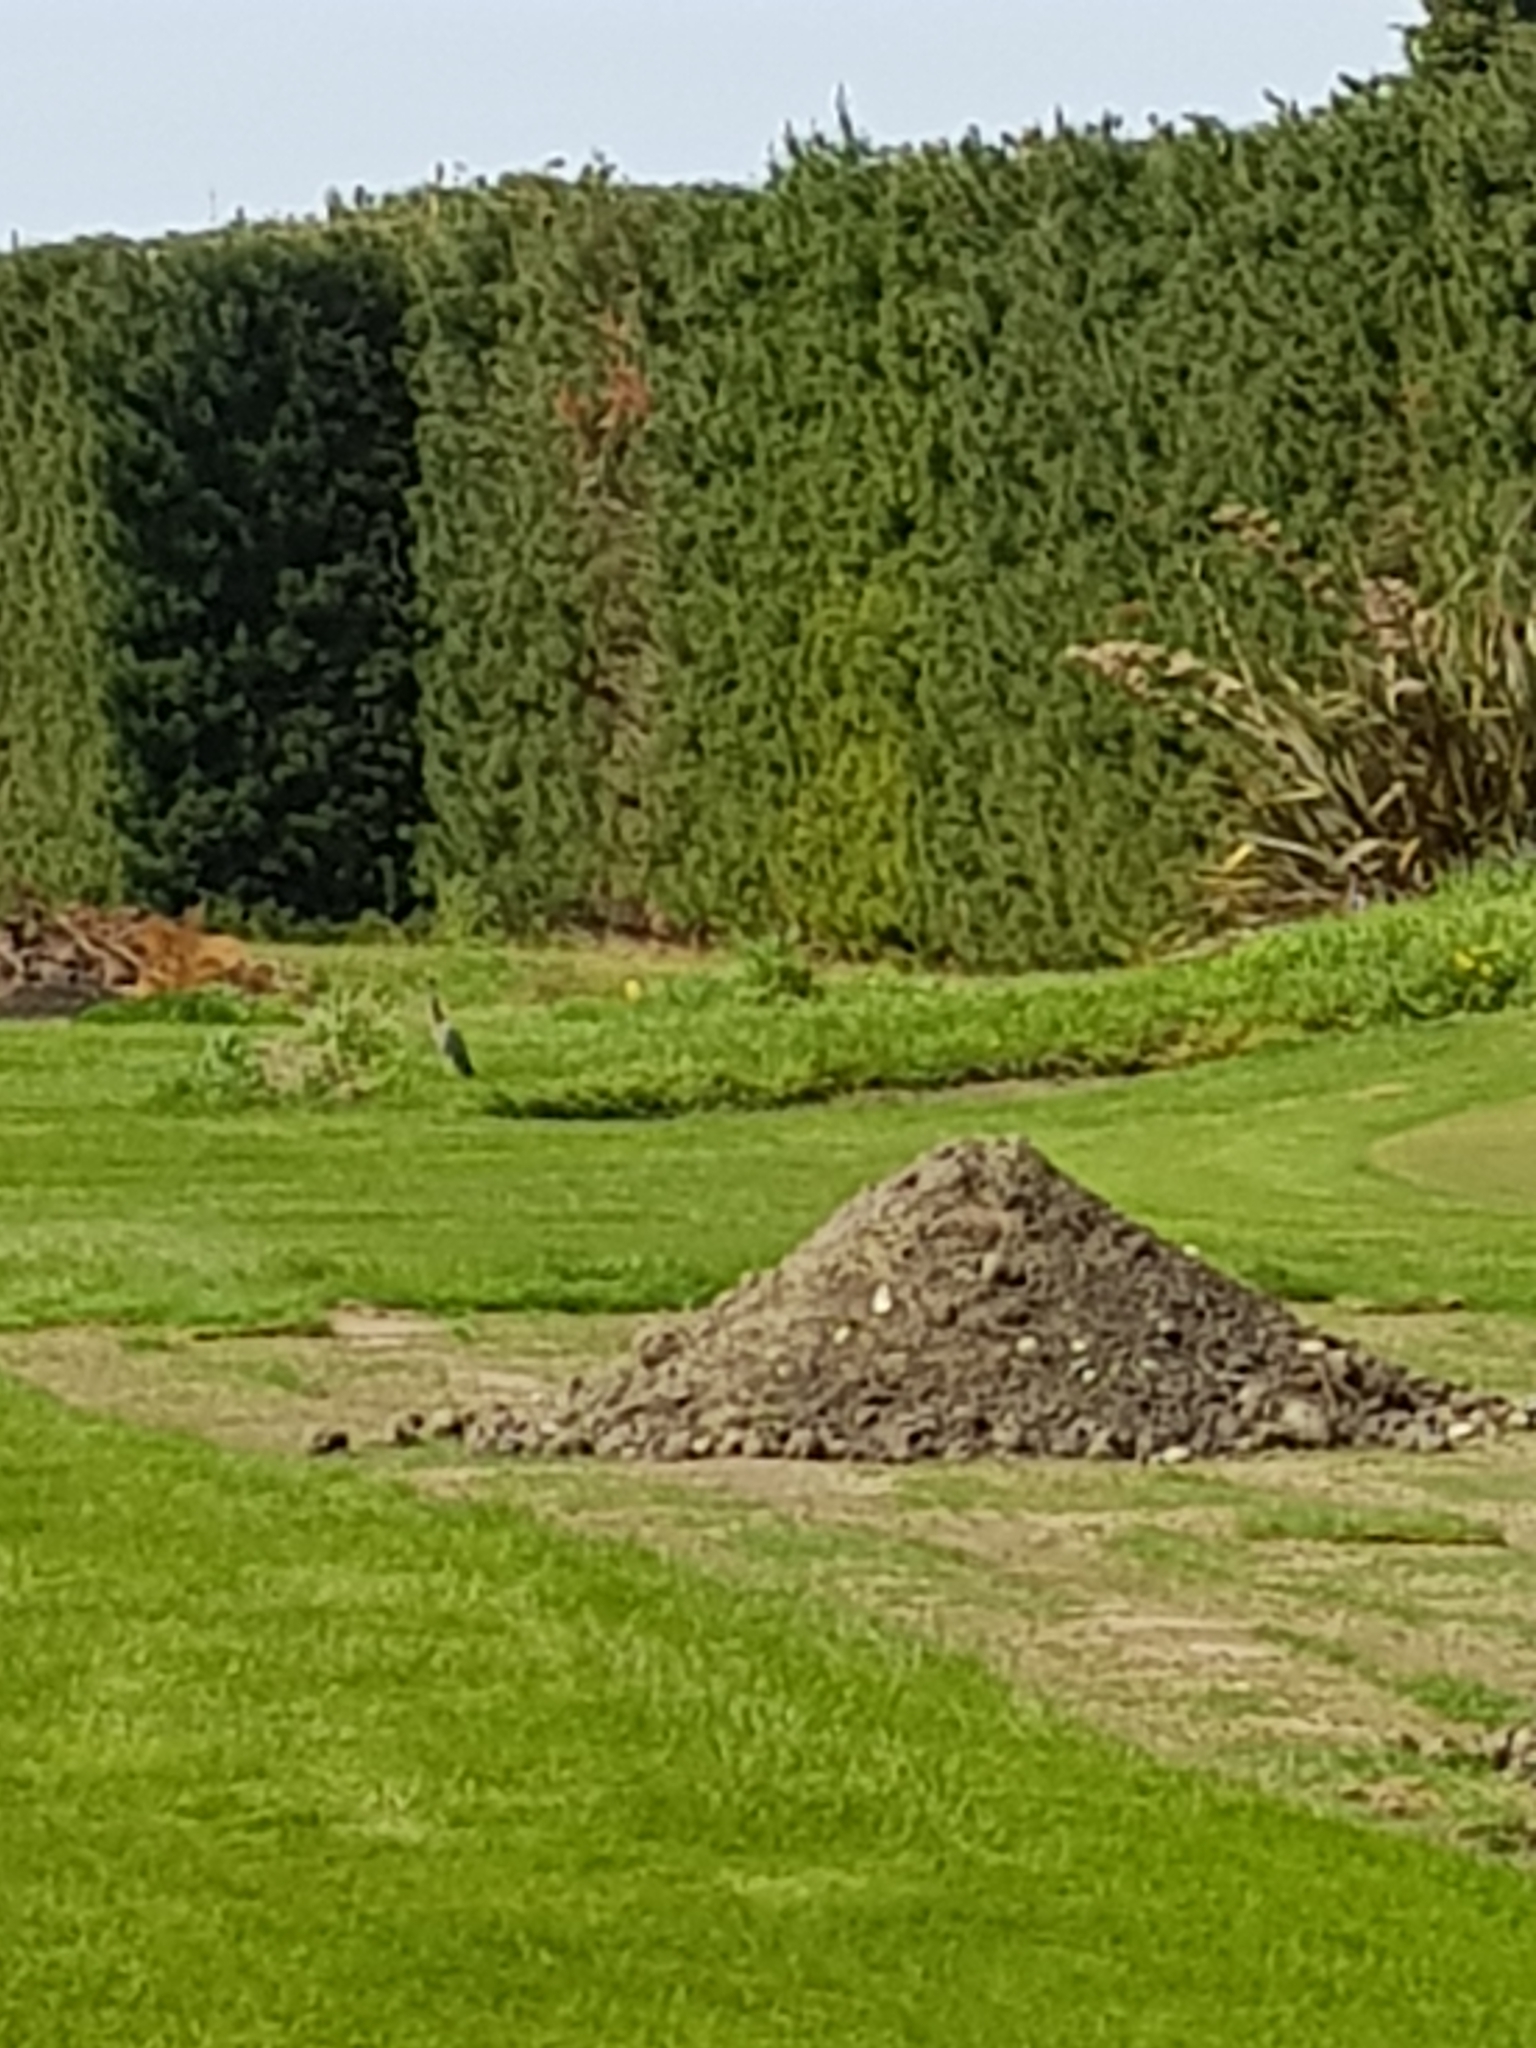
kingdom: Animalia
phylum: Chordata
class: Aves
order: Pelecaniformes
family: Ardeidae
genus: Egretta
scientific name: Egretta novaehollandiae
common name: White-faced heron
